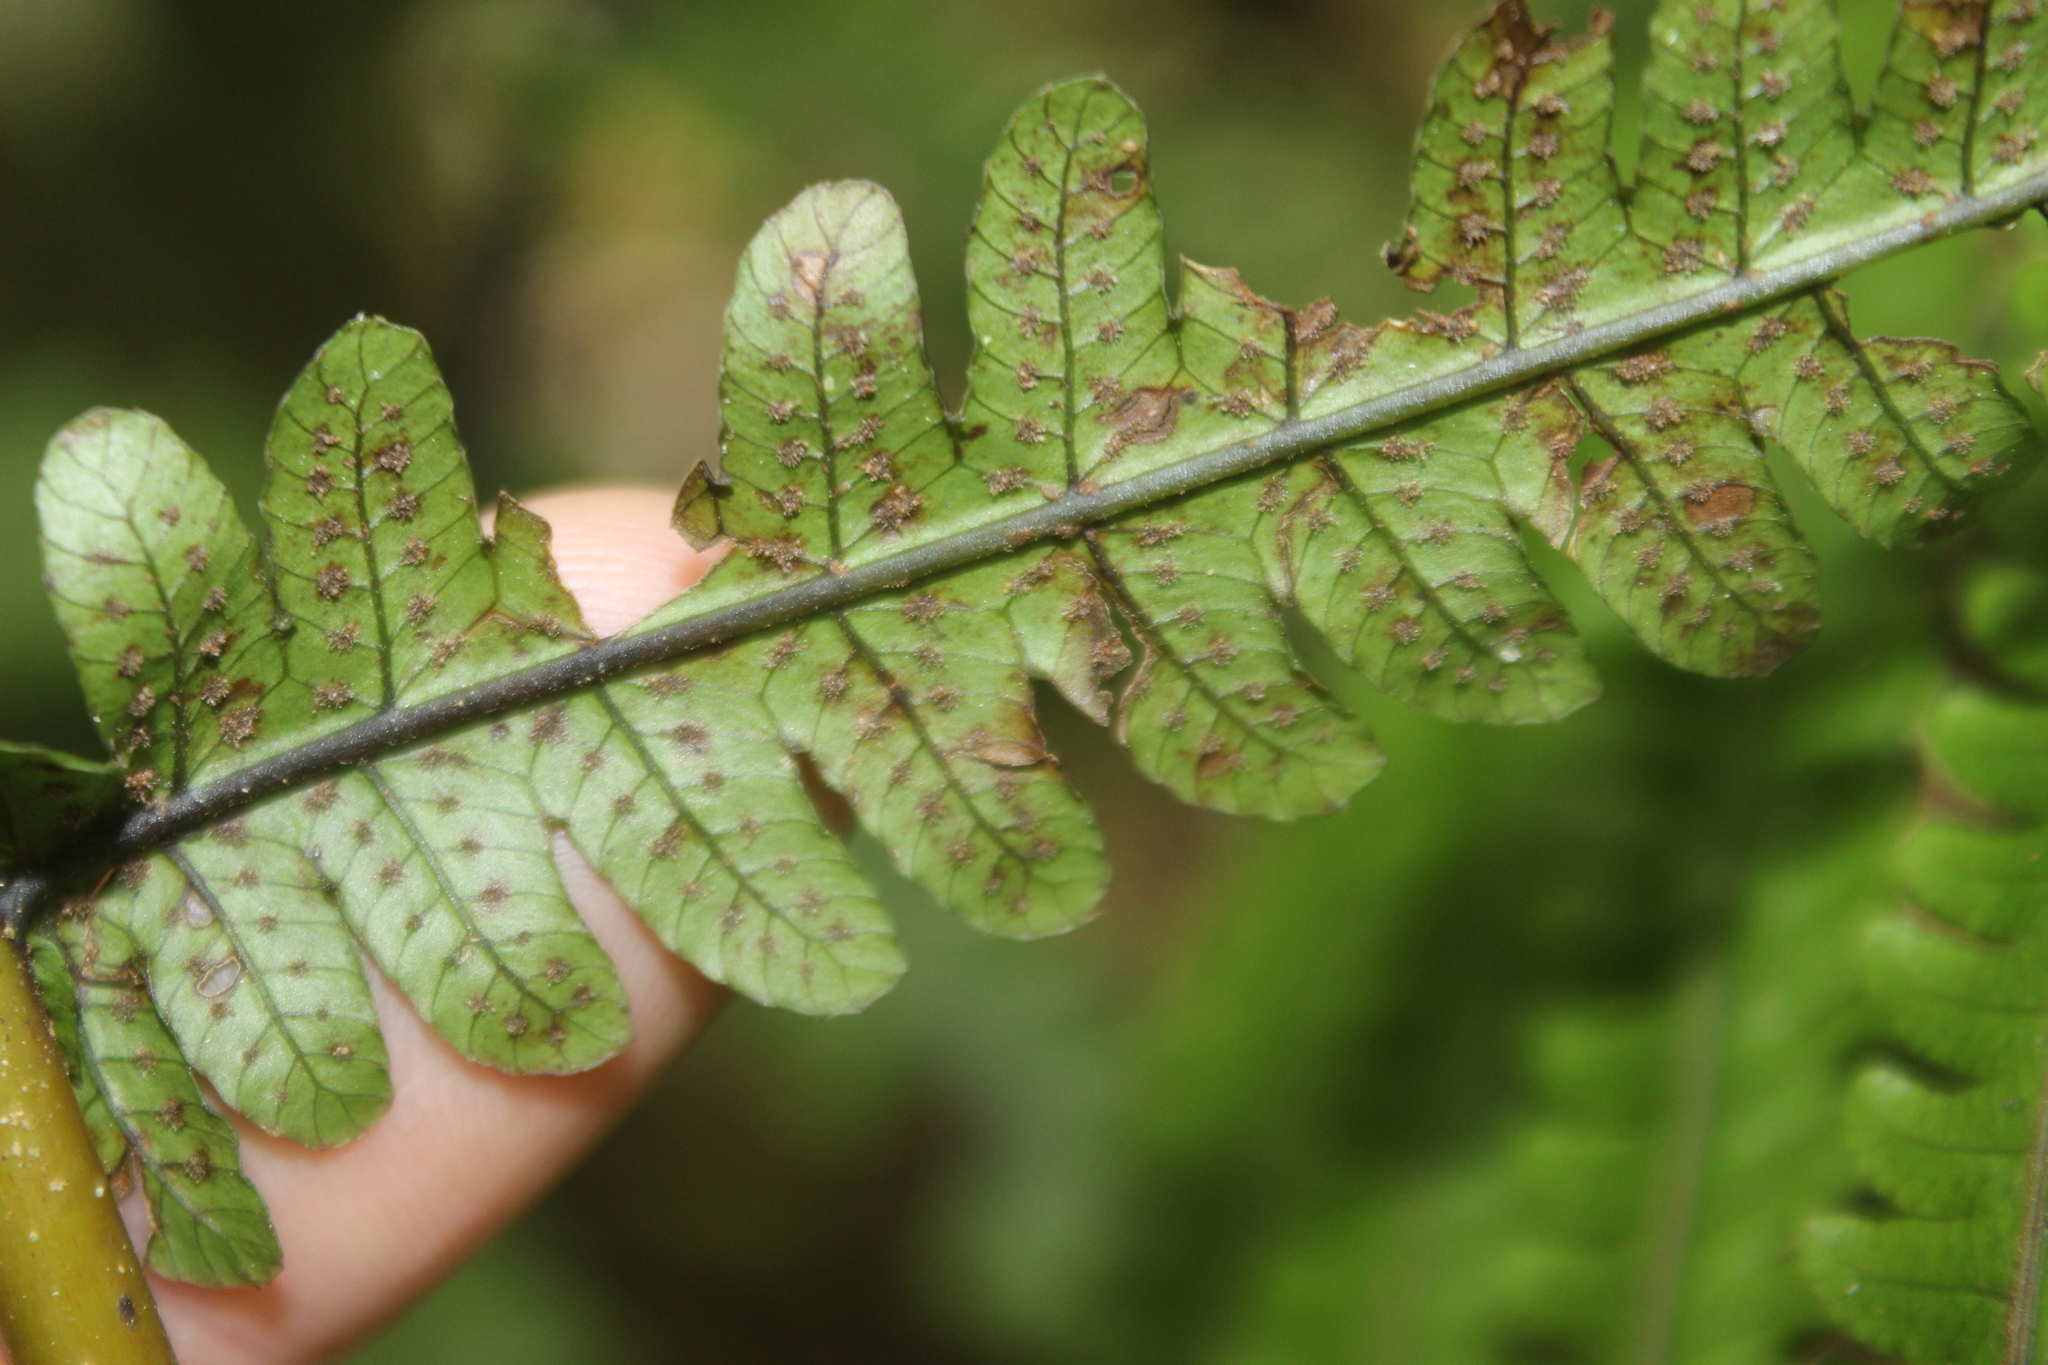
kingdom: Plantae
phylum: Tracheophyta
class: Polypodiopsida
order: Polypodiales
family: Thelypteridaceae
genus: Pakau
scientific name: Pakau pennigera
